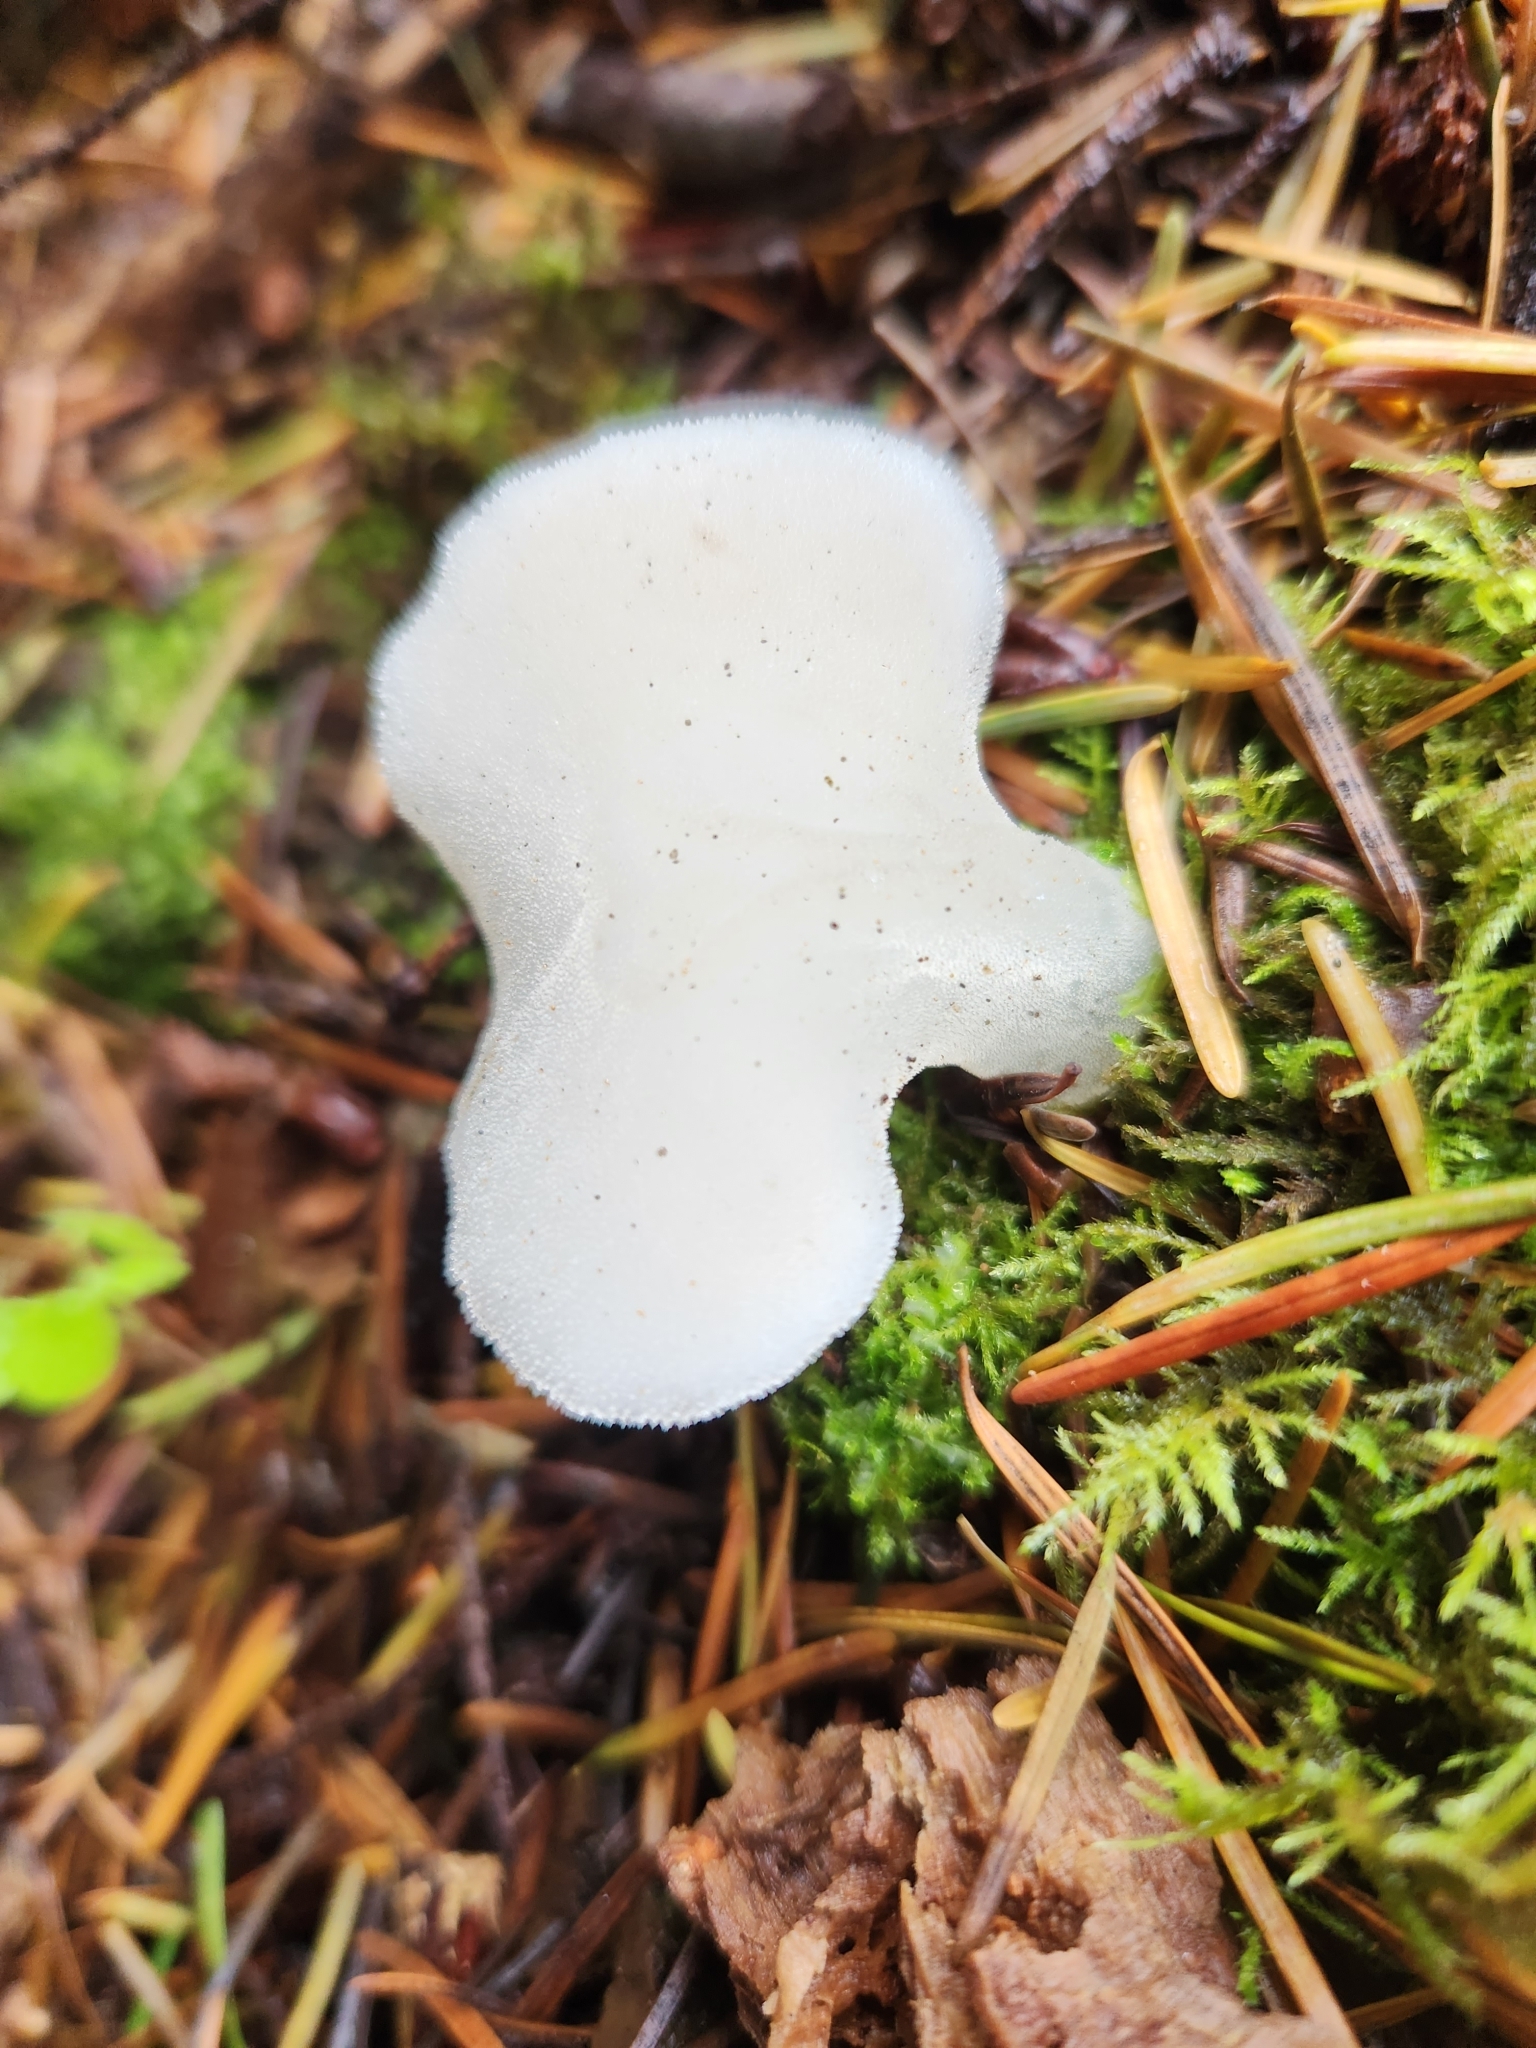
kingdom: Fungi
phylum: Basidiomycota
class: Agaricomycetes
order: Auriculariales
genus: Pseudohydnum
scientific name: Pseudohydnum gelatinosum
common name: Jelly tongue
